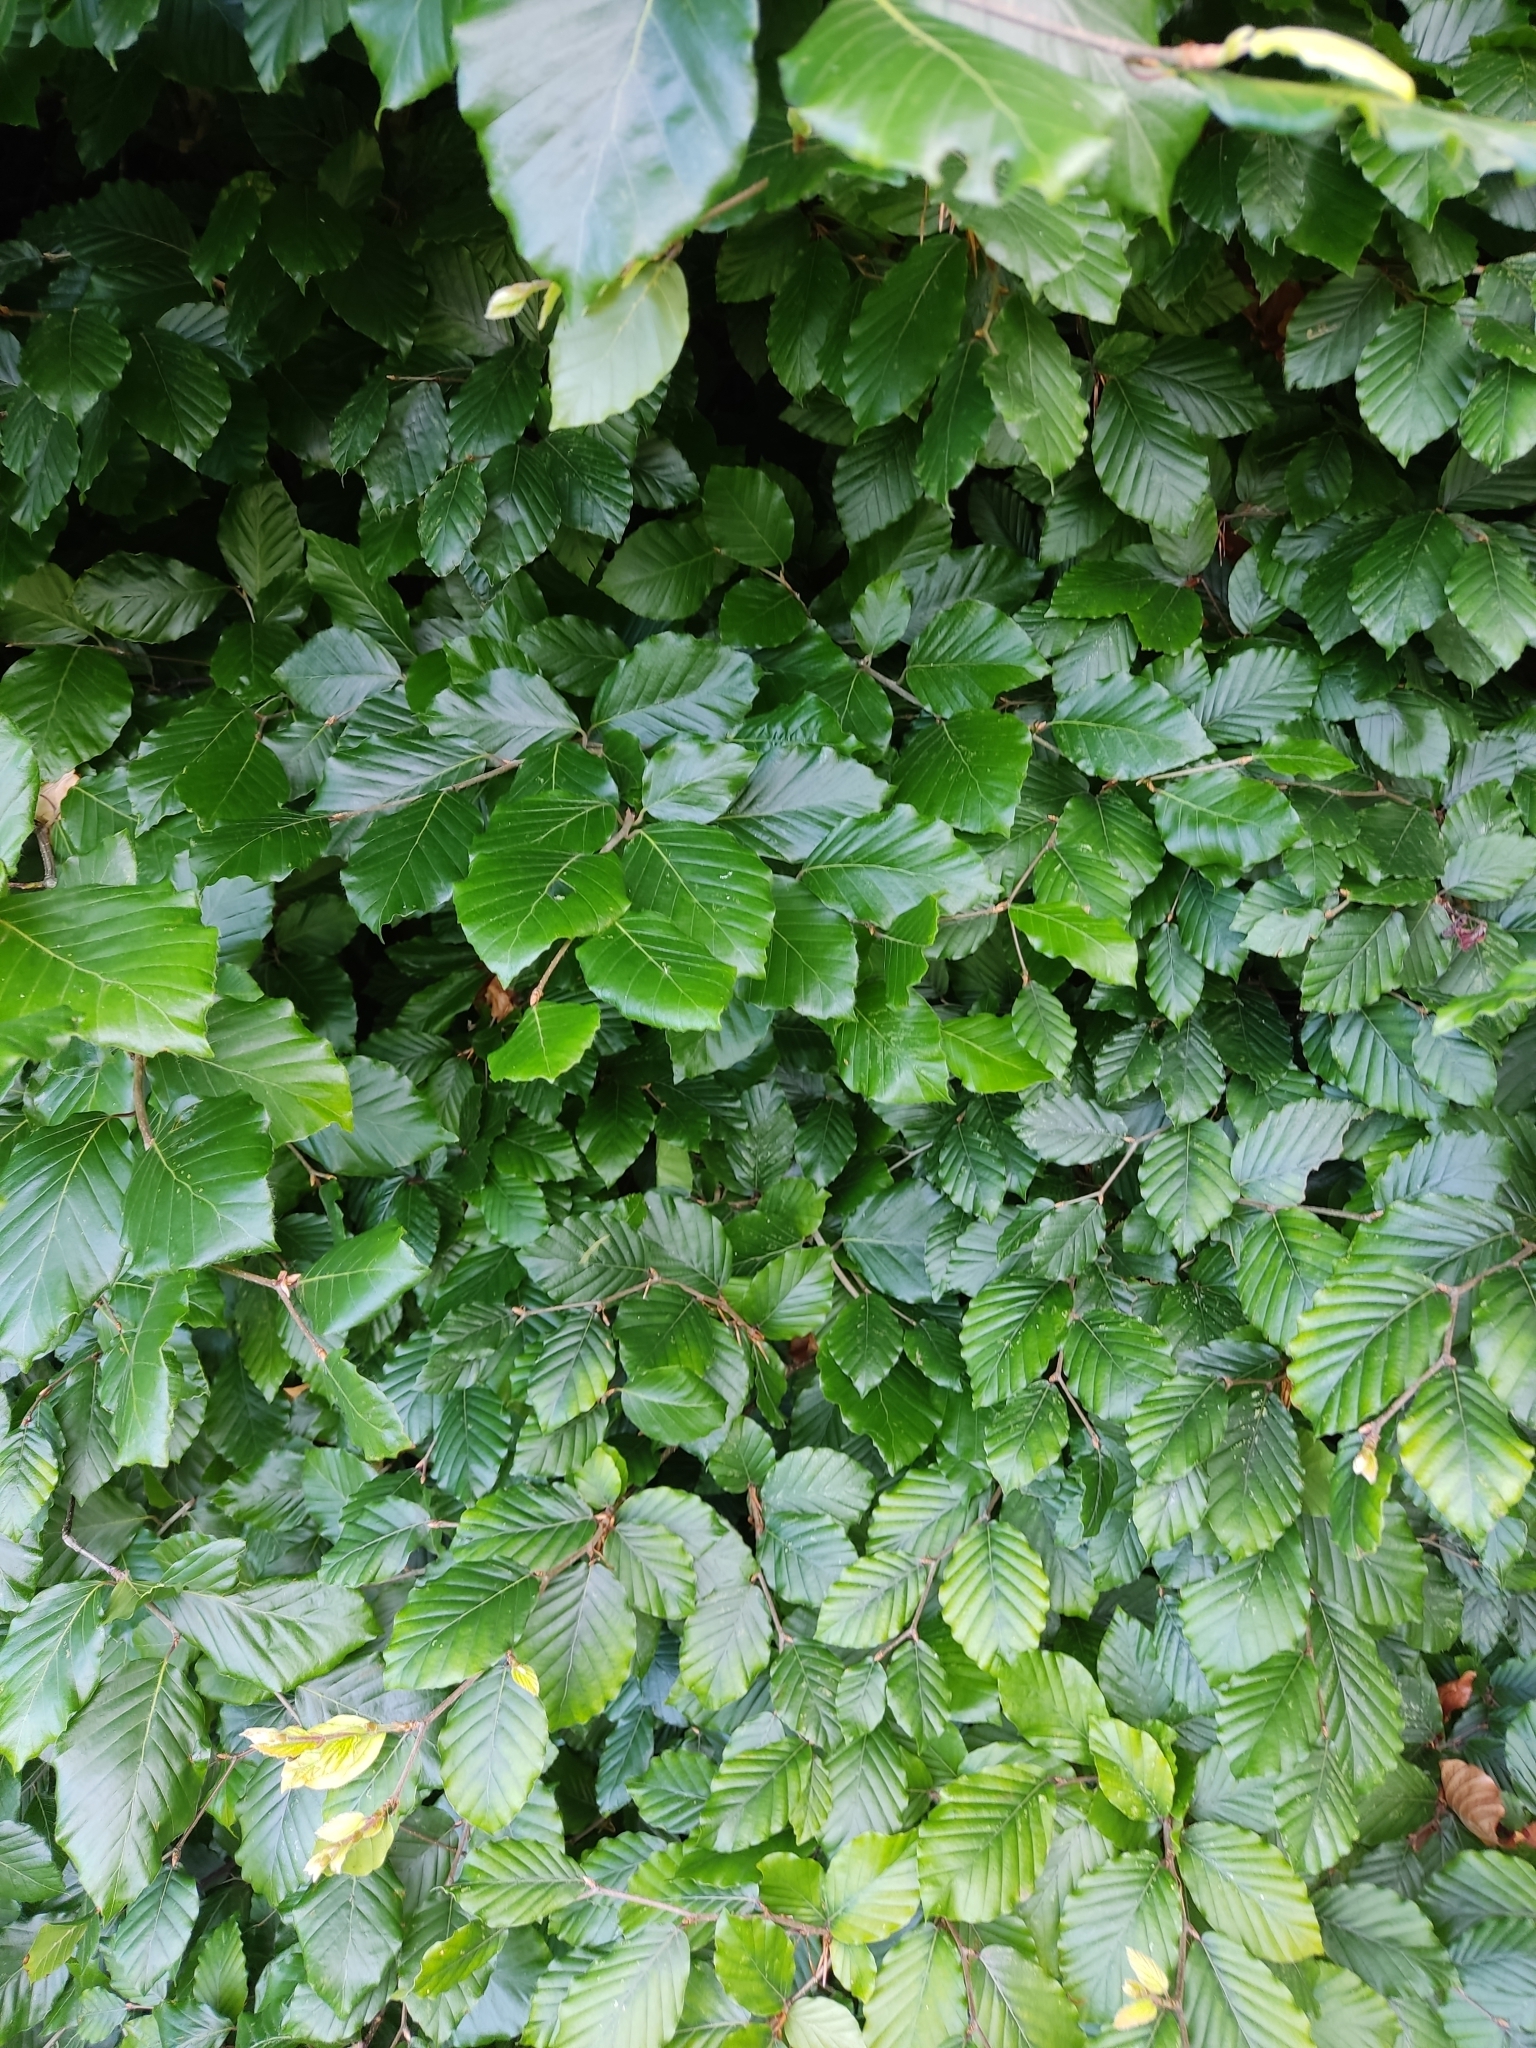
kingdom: Plantae
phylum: Tracheophyta
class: Magnoliopsida
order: Fagales
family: Fagaceae
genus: Fagus
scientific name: Fagus sylvatica
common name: Beech
